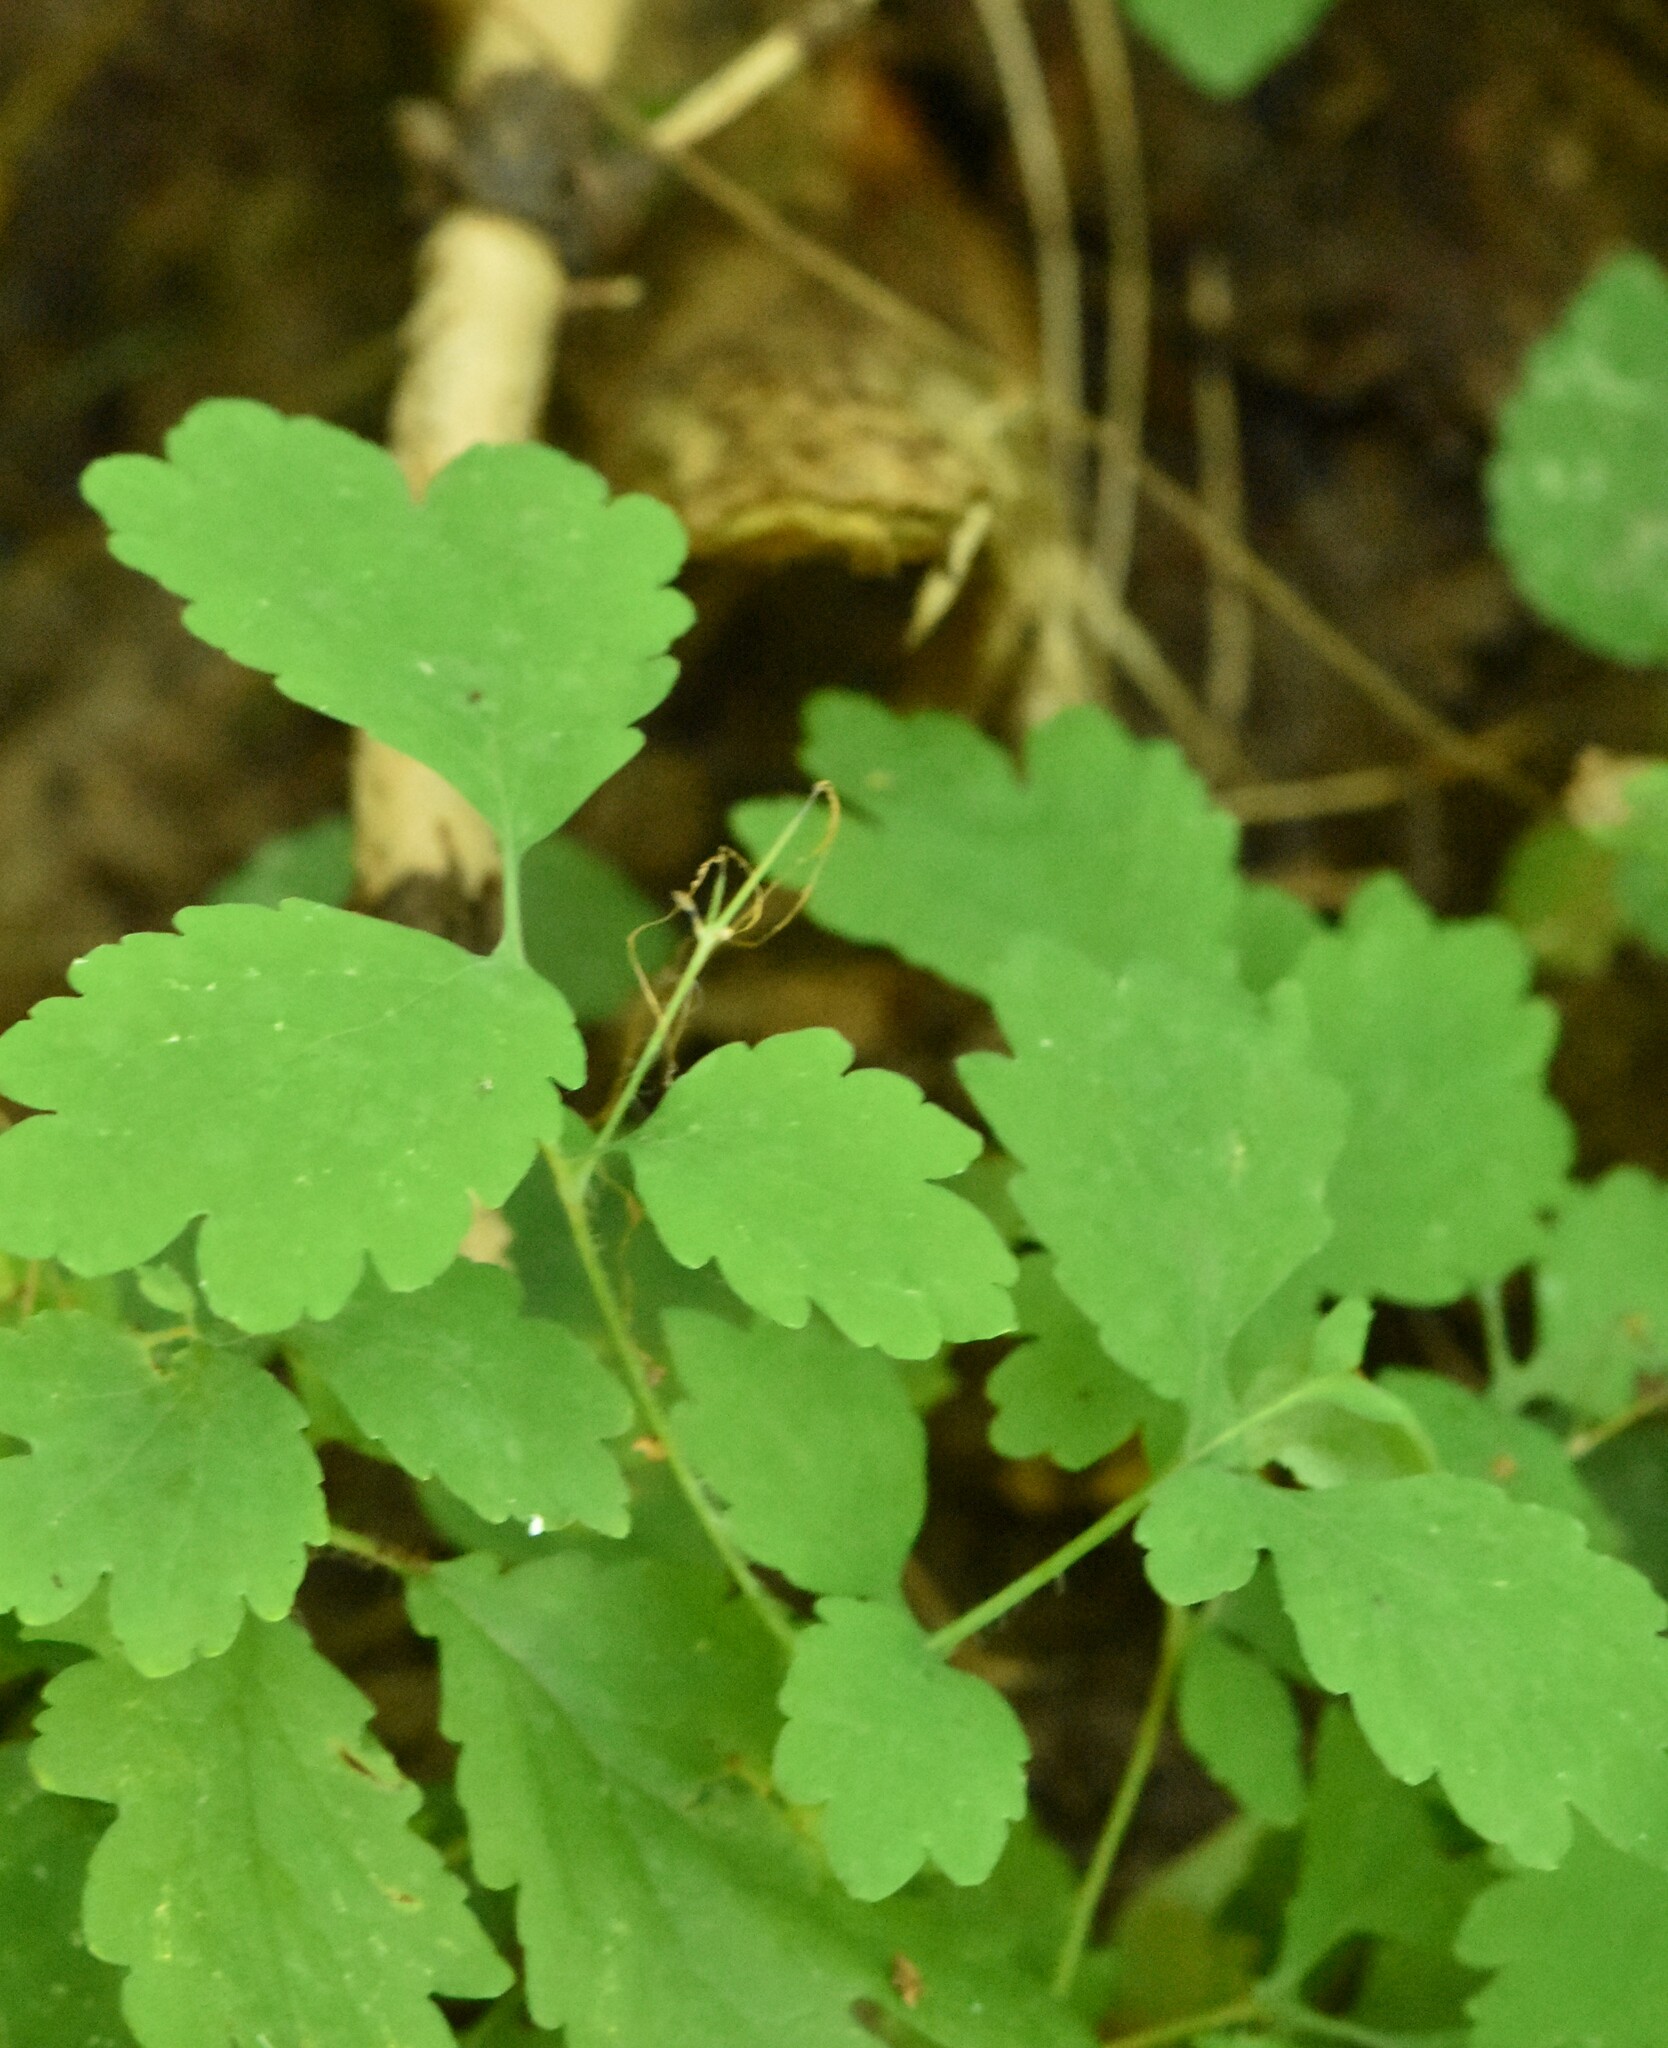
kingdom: Plantae
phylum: Tracheophyta
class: Magnoliopsida
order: Ranunculales
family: Papaveraceae
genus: Chelidonium
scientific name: Chelidonium majus
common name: Greater celandine
